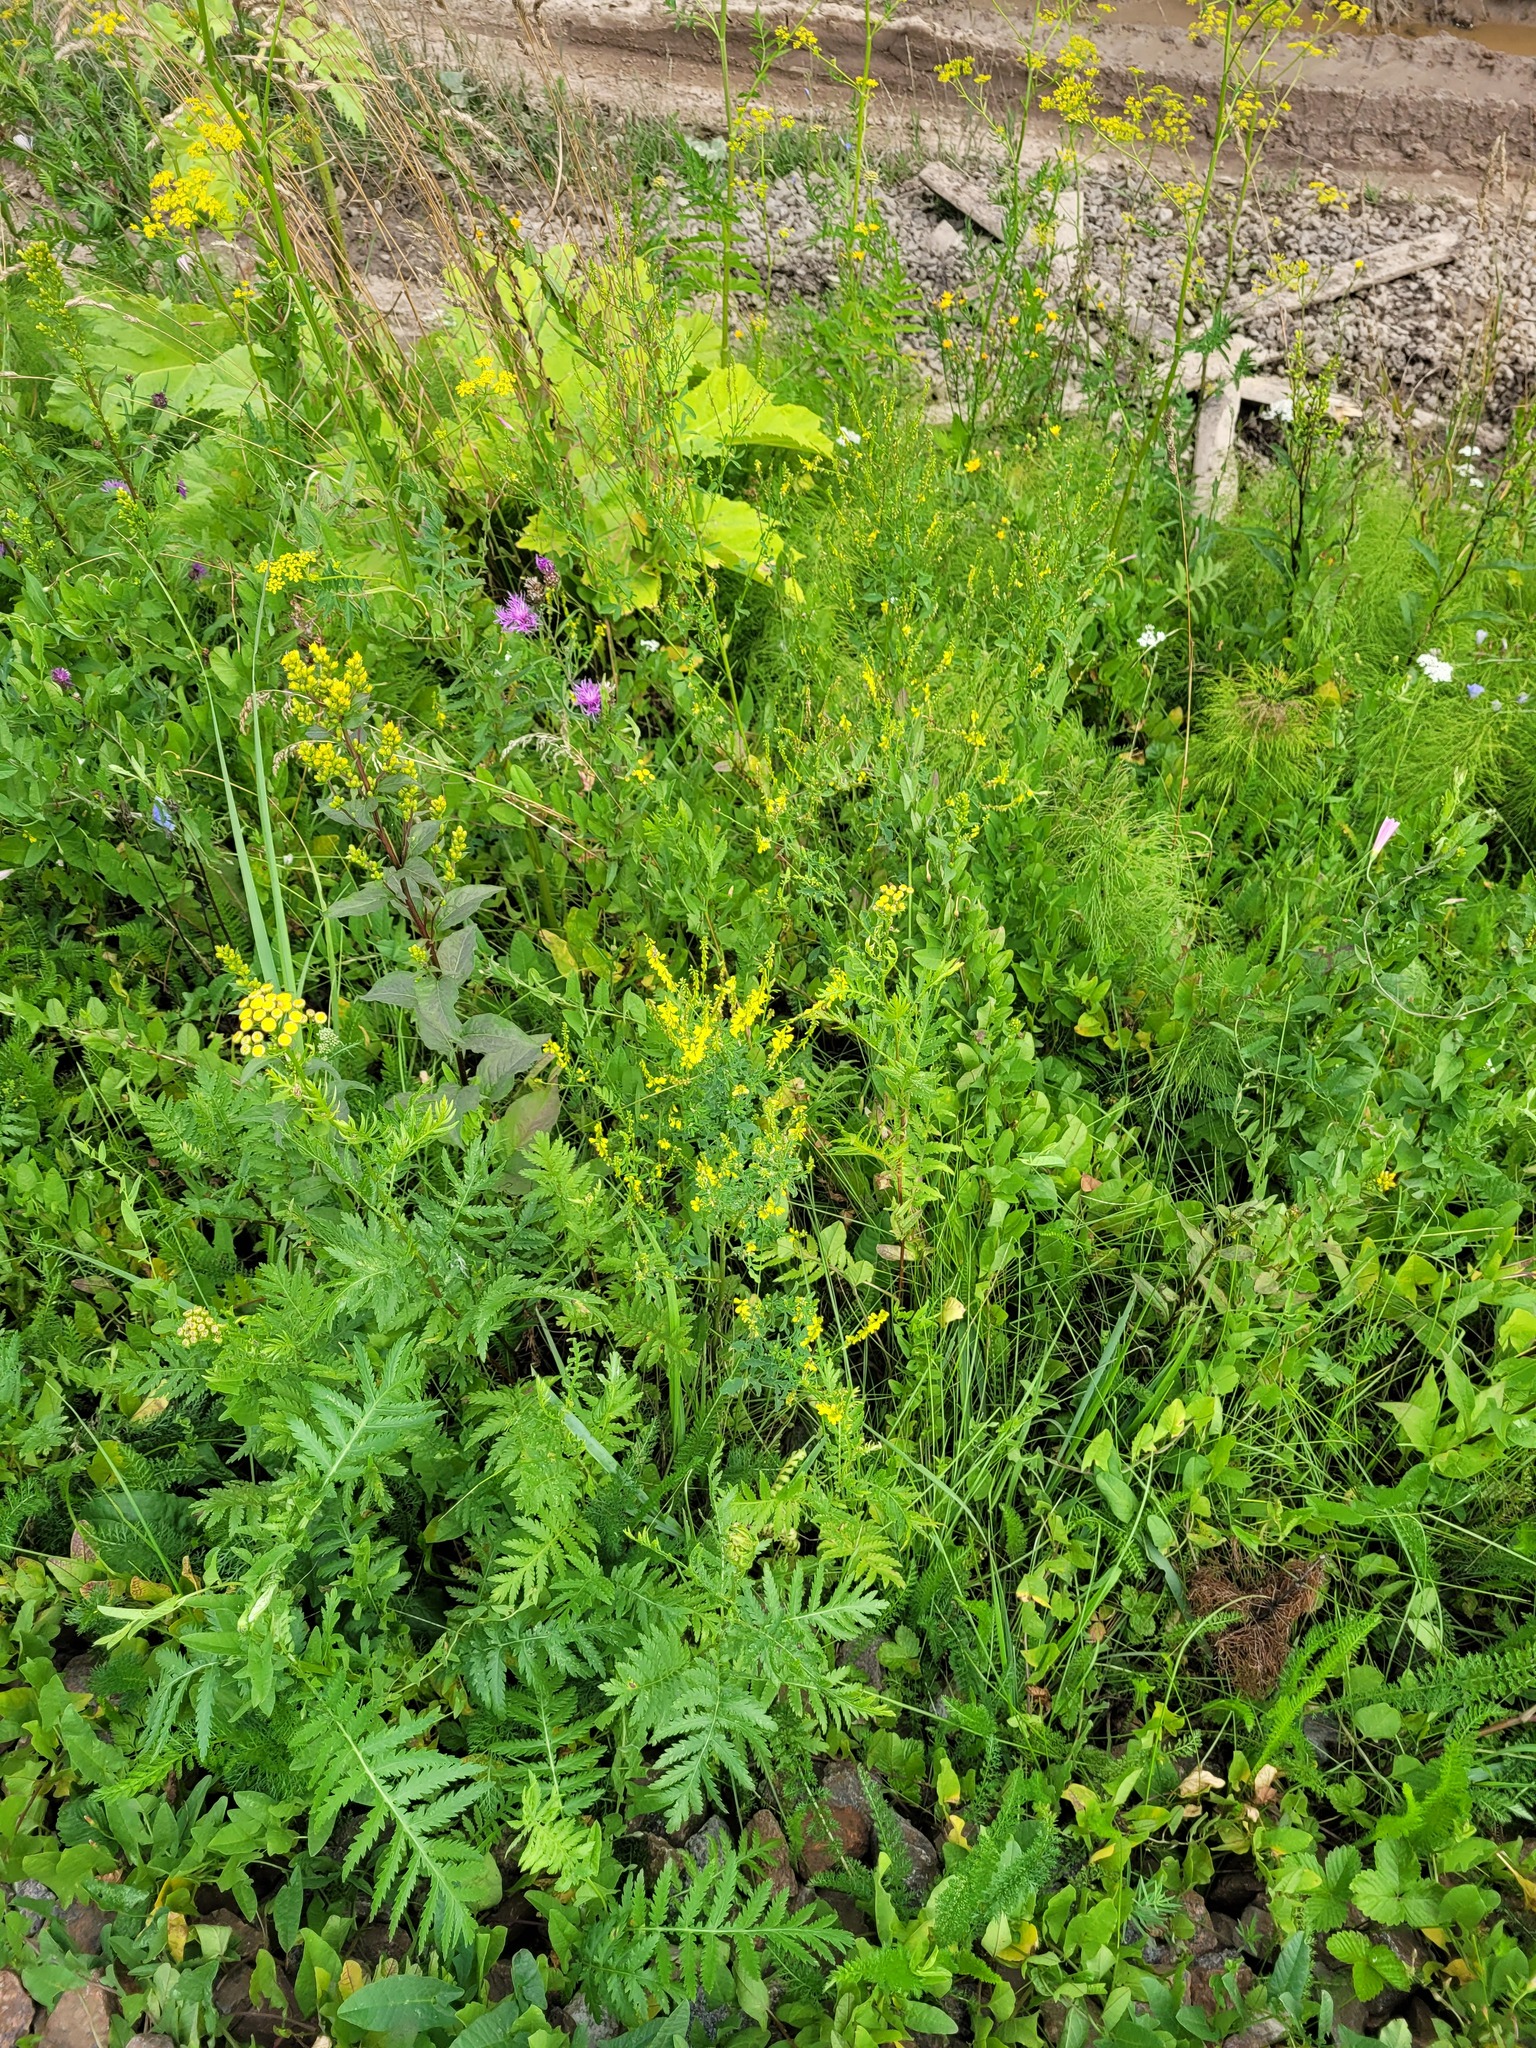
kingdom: Plantae
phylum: Tracheophyta
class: Magnoliopsida
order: Asterales
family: Asteraceae
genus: Solidago
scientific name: Solidago virgaurea
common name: Goldenrod
